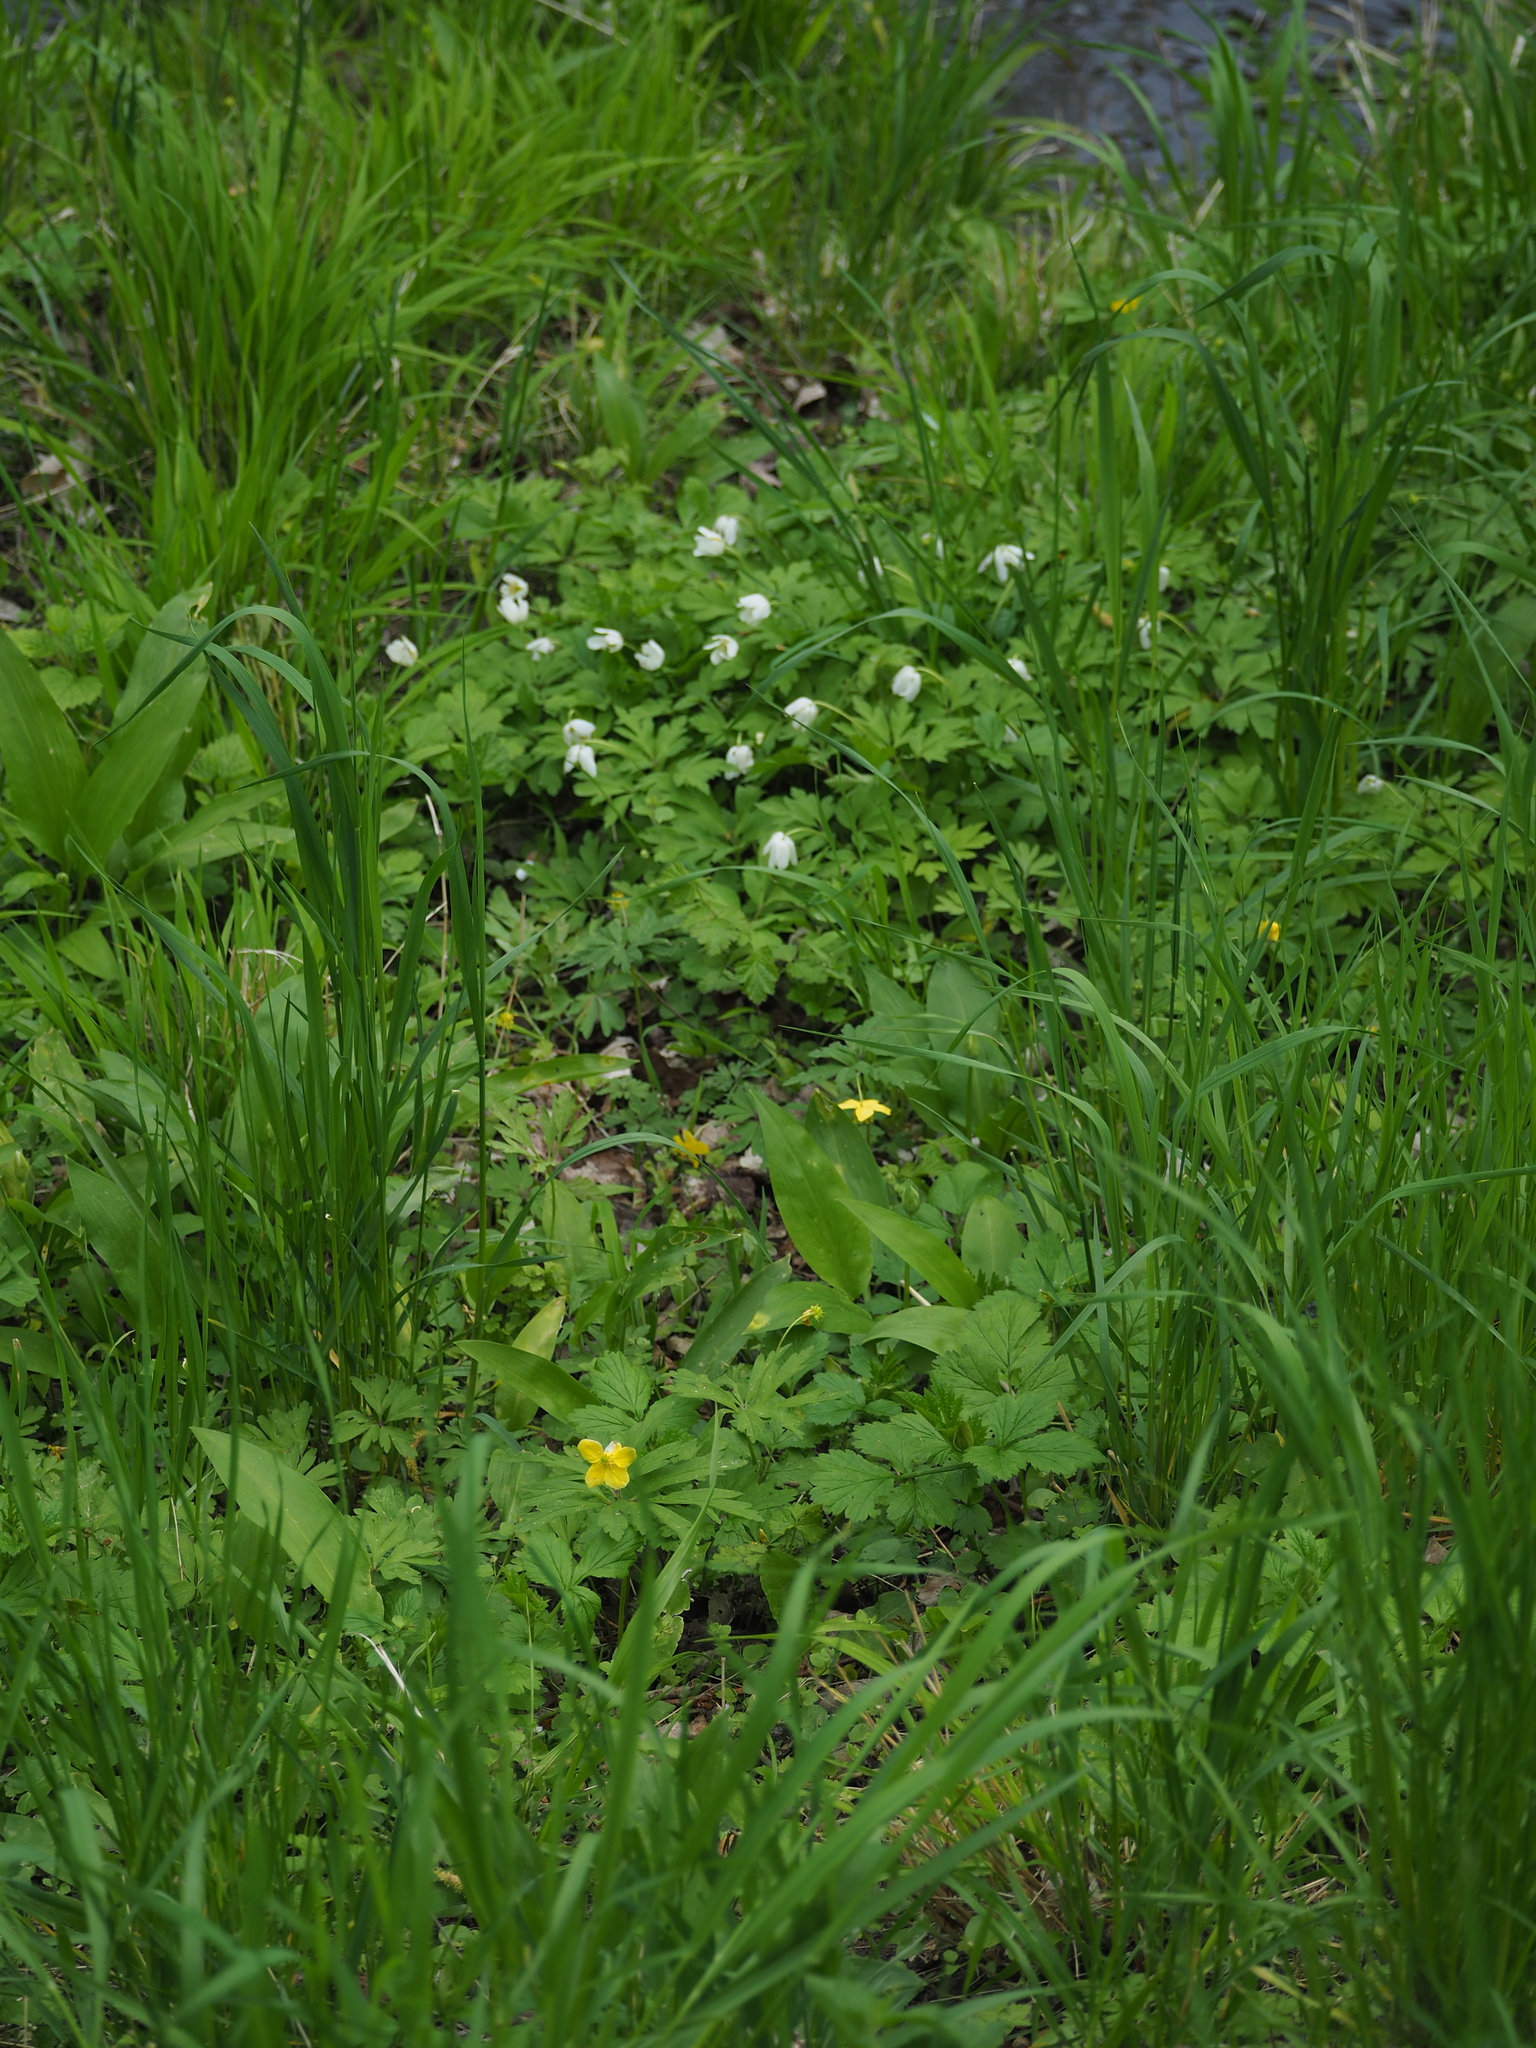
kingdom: Plantae
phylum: Tracheophyta
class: Magnoliopsida
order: Ranunculales
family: Ranunculaceae
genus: Anemone
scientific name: Anemone nemorosa
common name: Wood anemone
